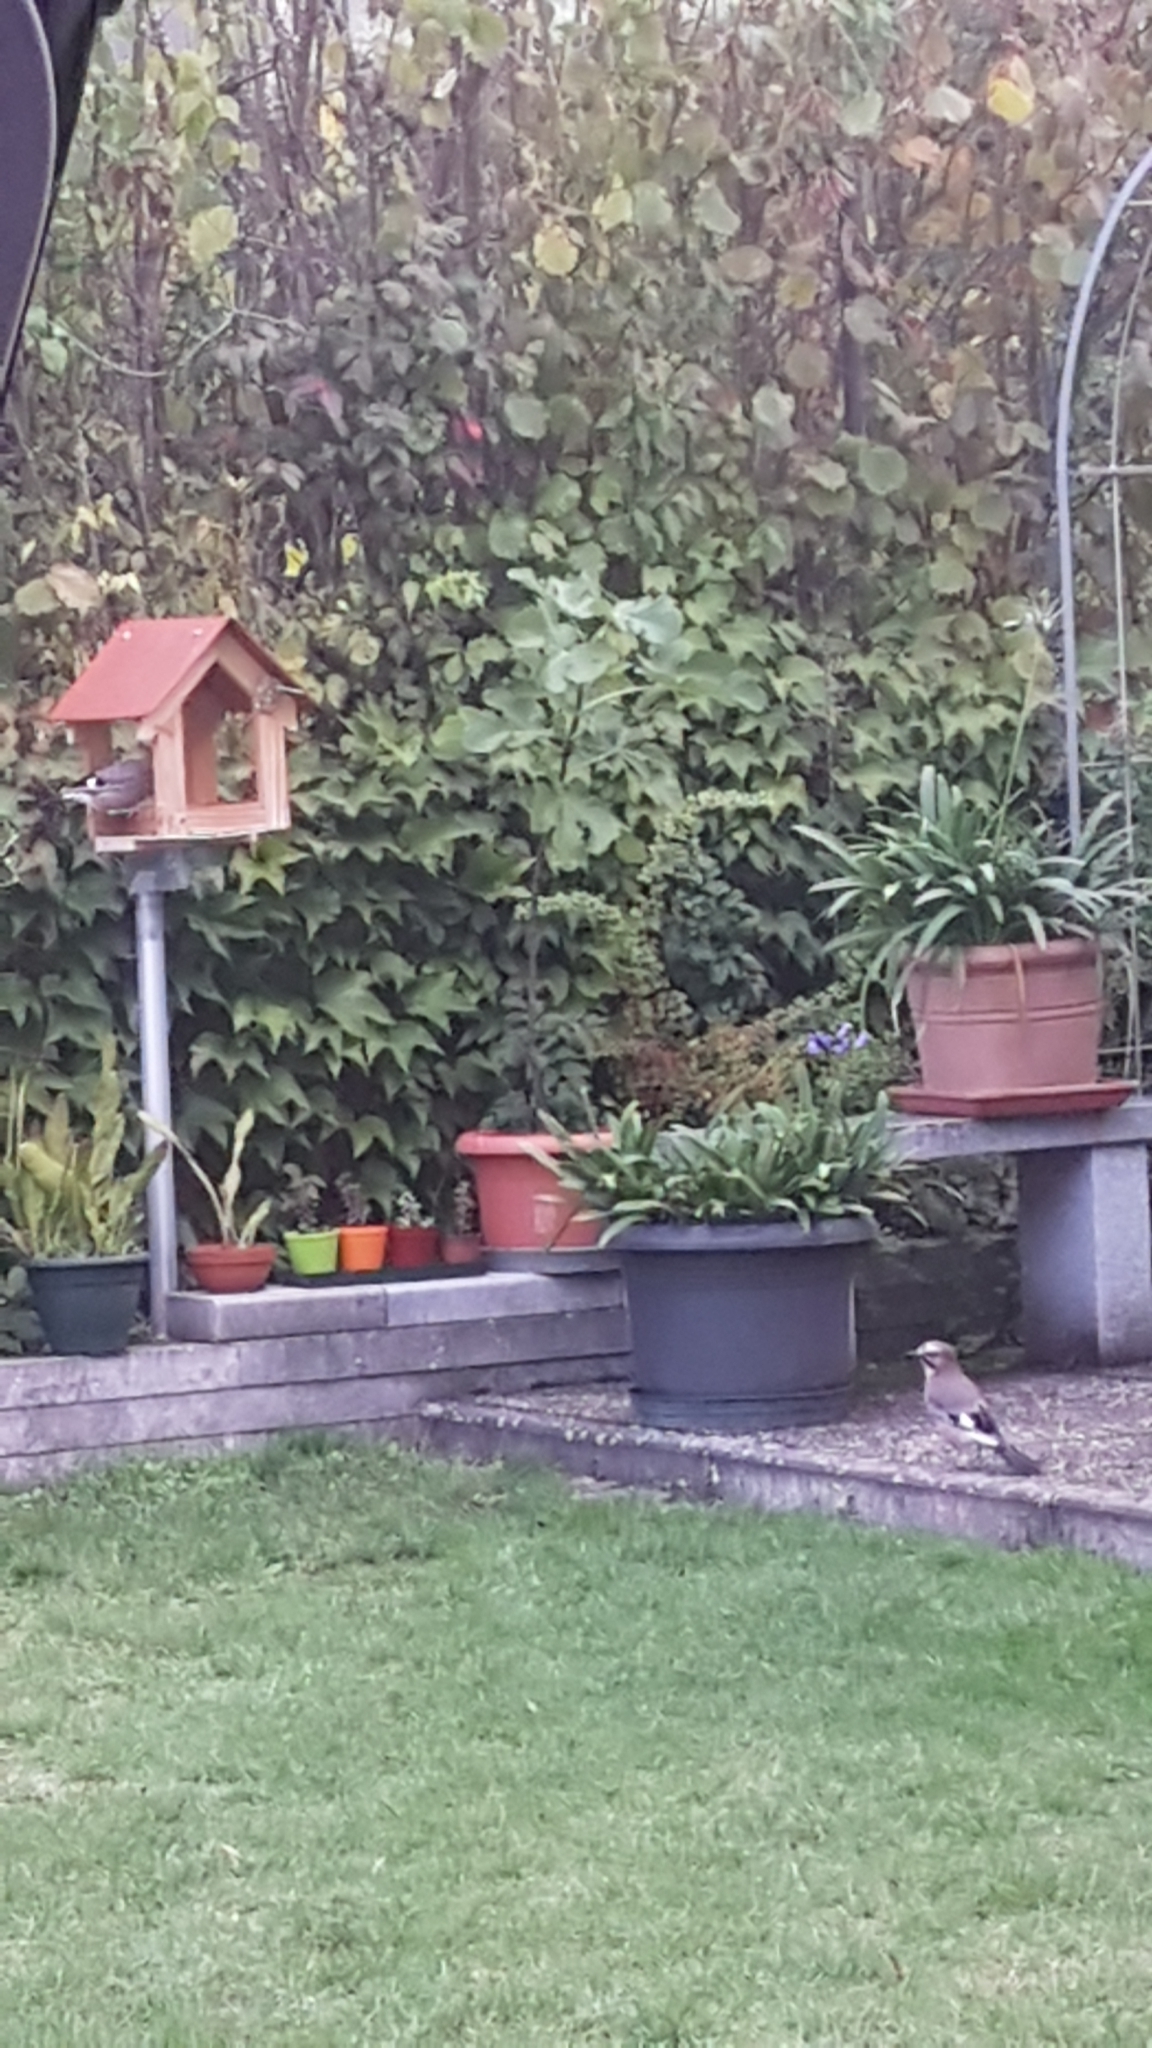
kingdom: Animalia
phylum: Chordata
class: Aves
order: Passeriformes
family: Corvidae
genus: Garrulus
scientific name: Garrulus glandarius
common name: Eurasian jay
